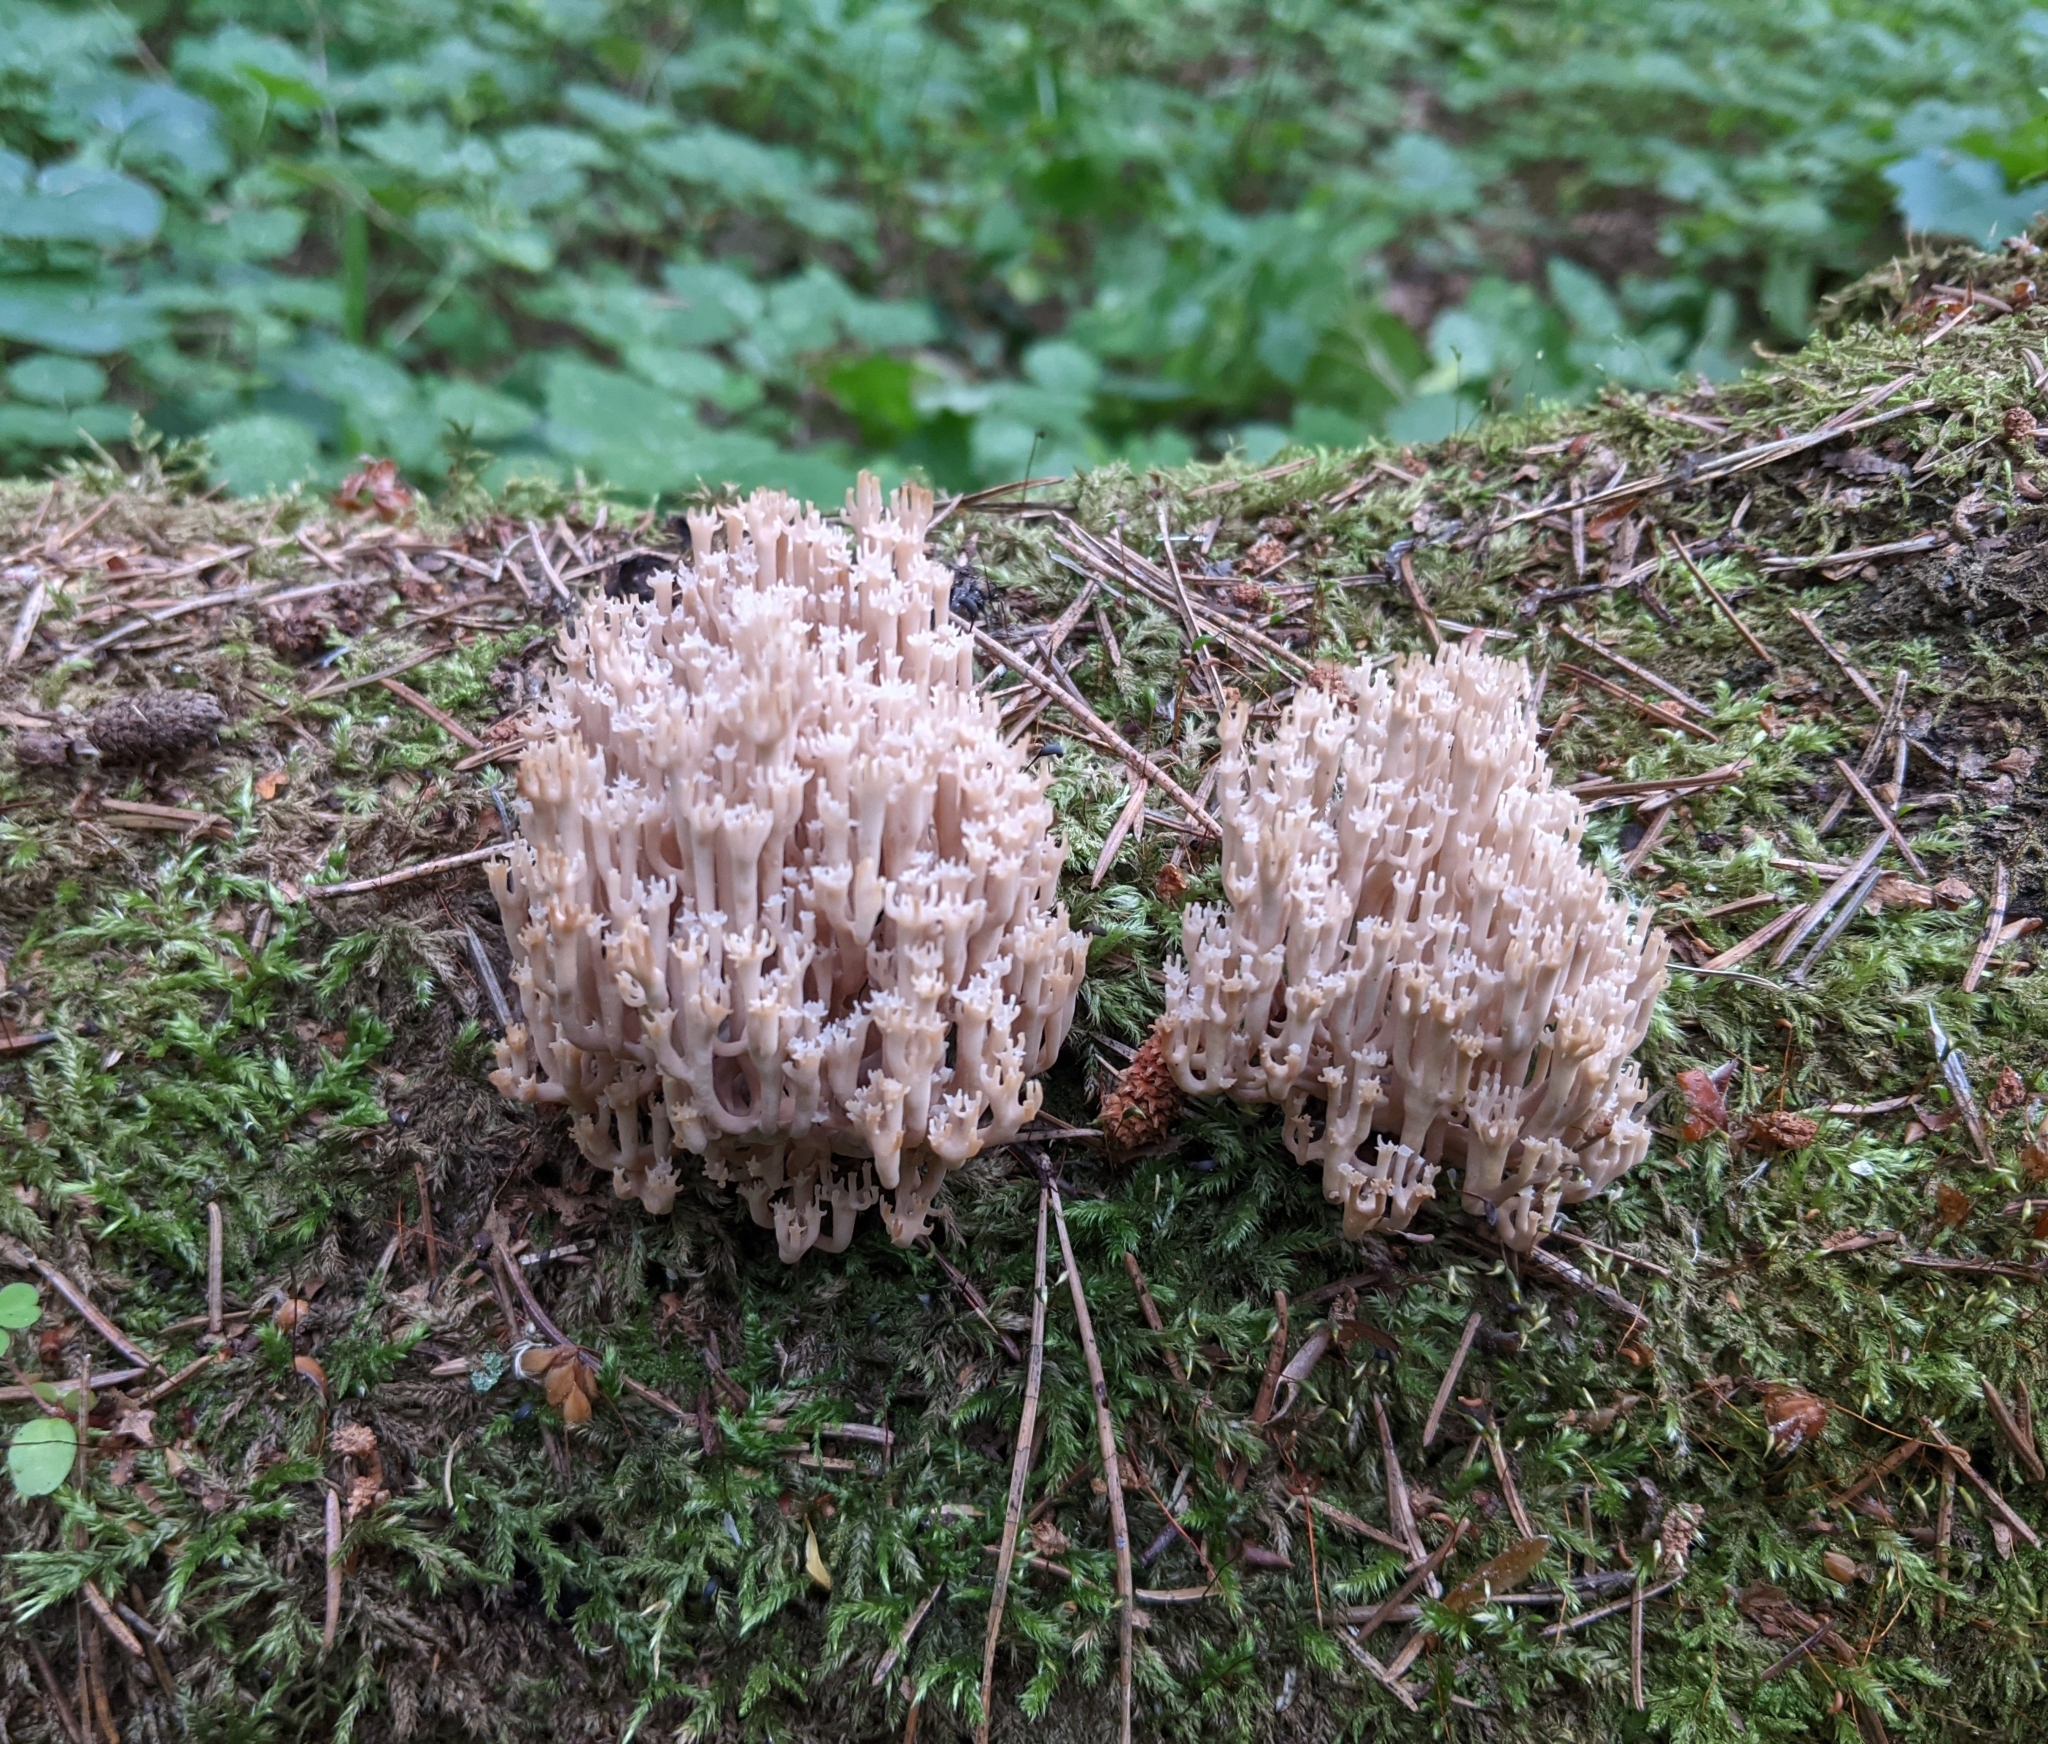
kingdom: Fungi
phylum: Basidiomycota
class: Agaricomycetes
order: Russulales
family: Auriscalpiaceae
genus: Artomyces
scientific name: Artomyces pyxidatus
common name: Crown-tipped coral fungus
